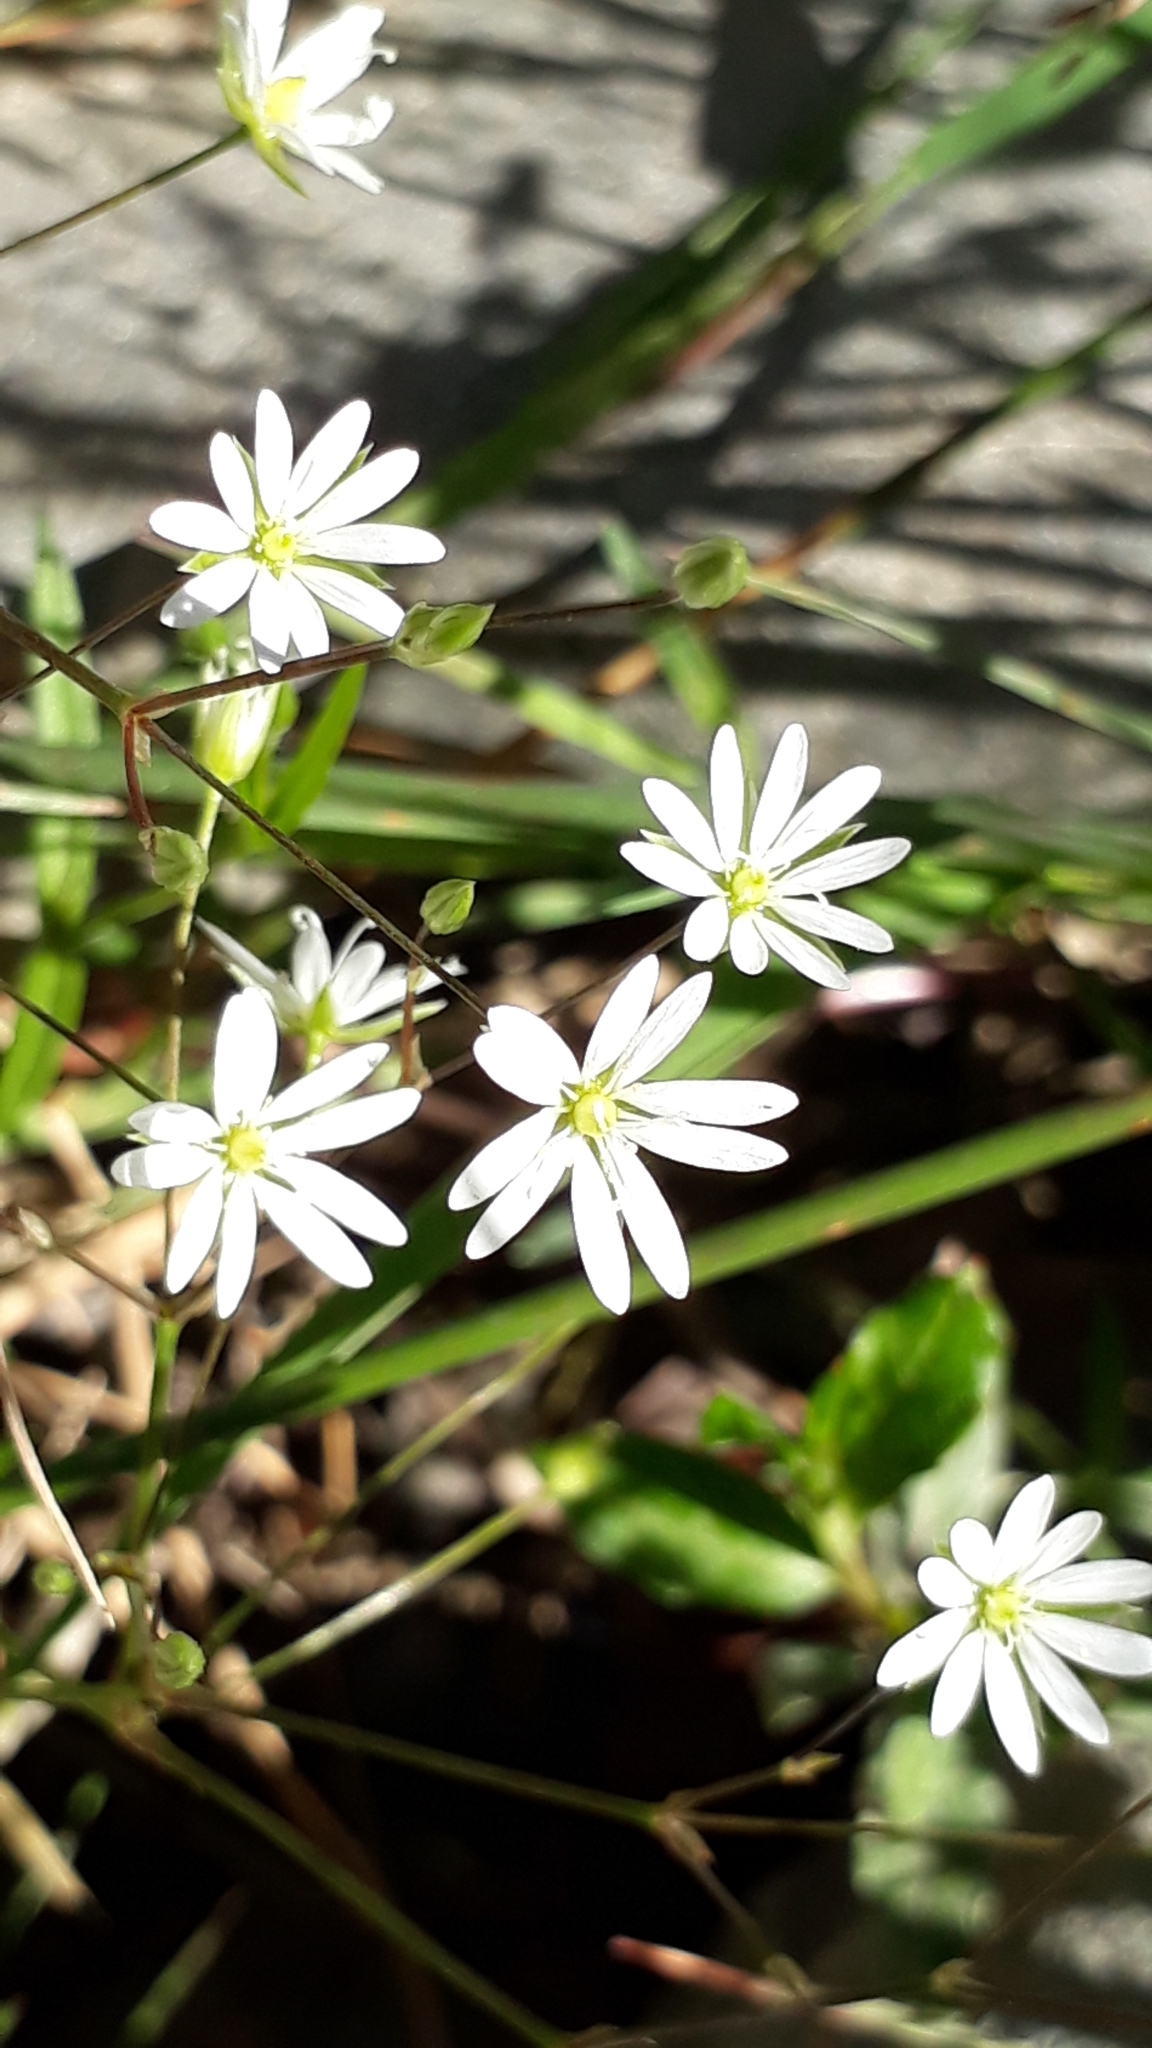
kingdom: Plantae
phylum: Tracheophyta
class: Magnoliopsida
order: Caryophyllales
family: Caryophyllaceae
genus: Stellaria
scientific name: Stellaria graminea
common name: Grass-like starwort
